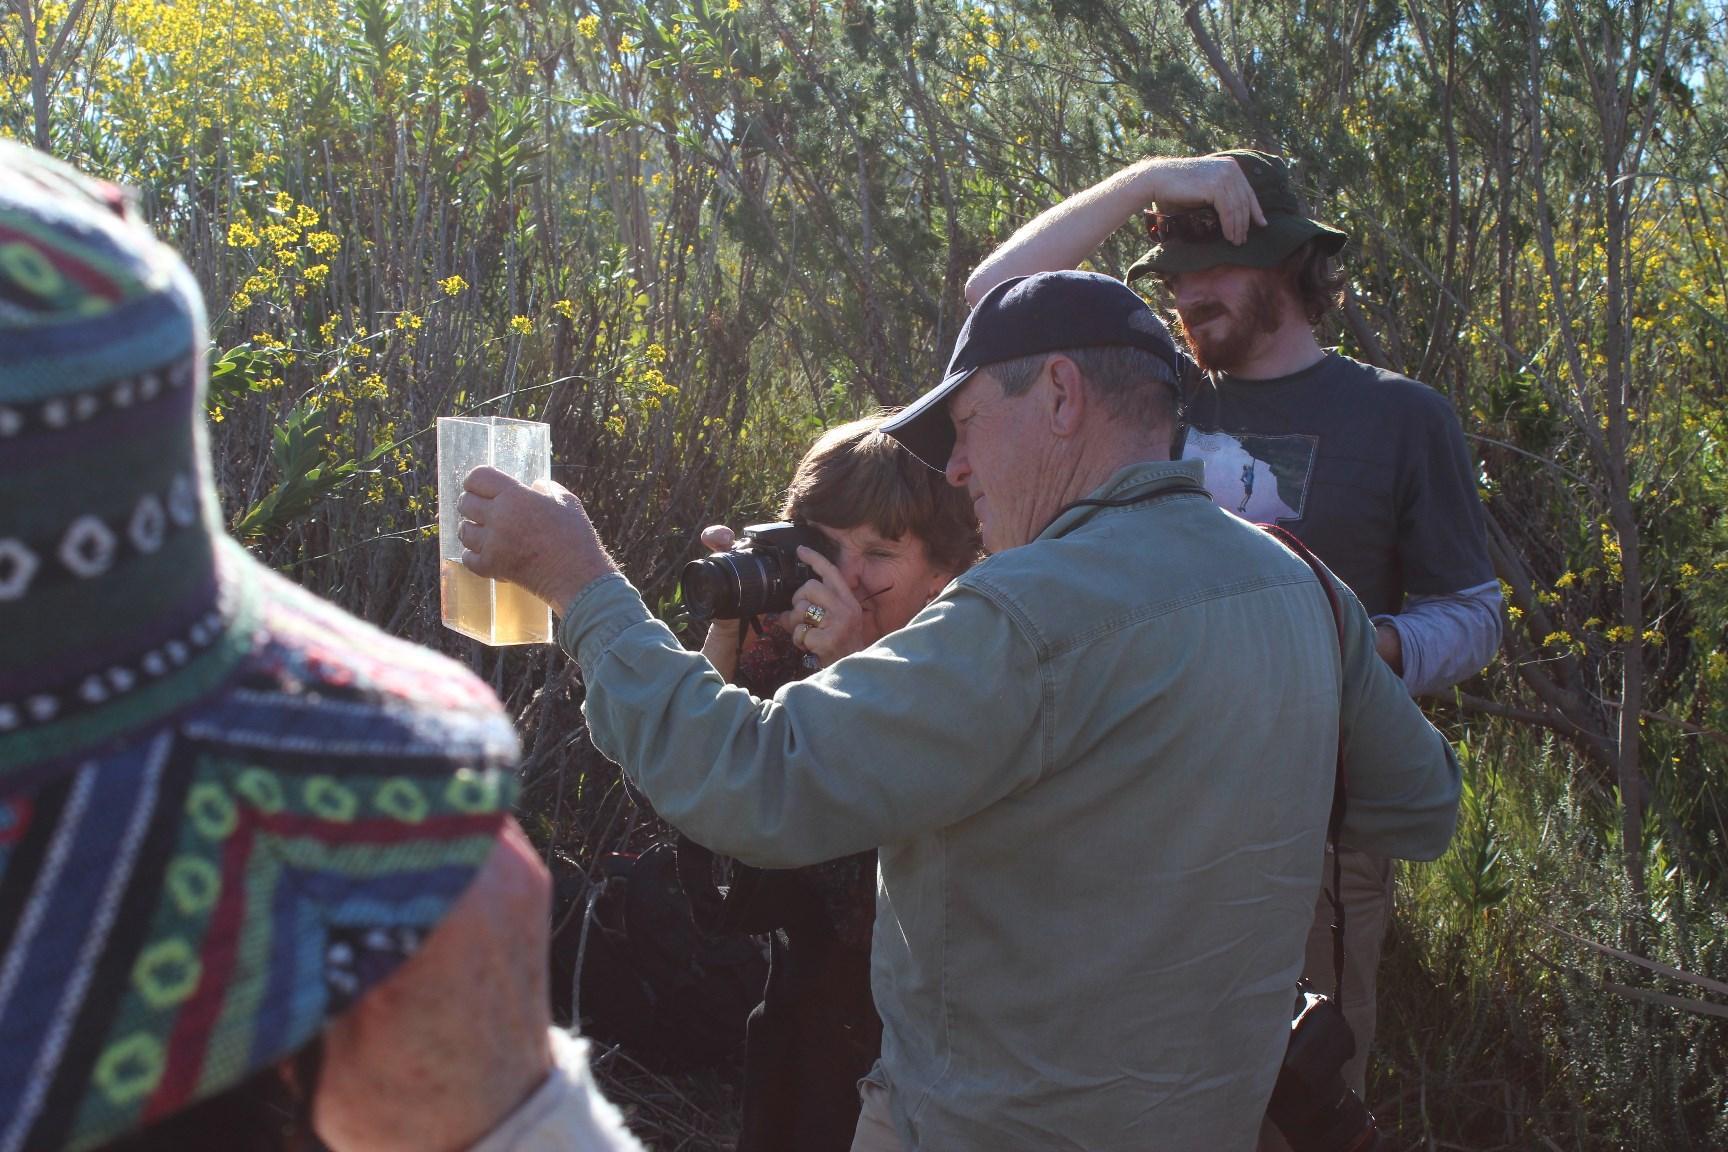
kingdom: Animalia
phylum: Chordata
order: Osmeriformes
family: Galaxiidae
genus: Galaxias
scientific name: Galaxias zebratus
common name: Cape galaxias
